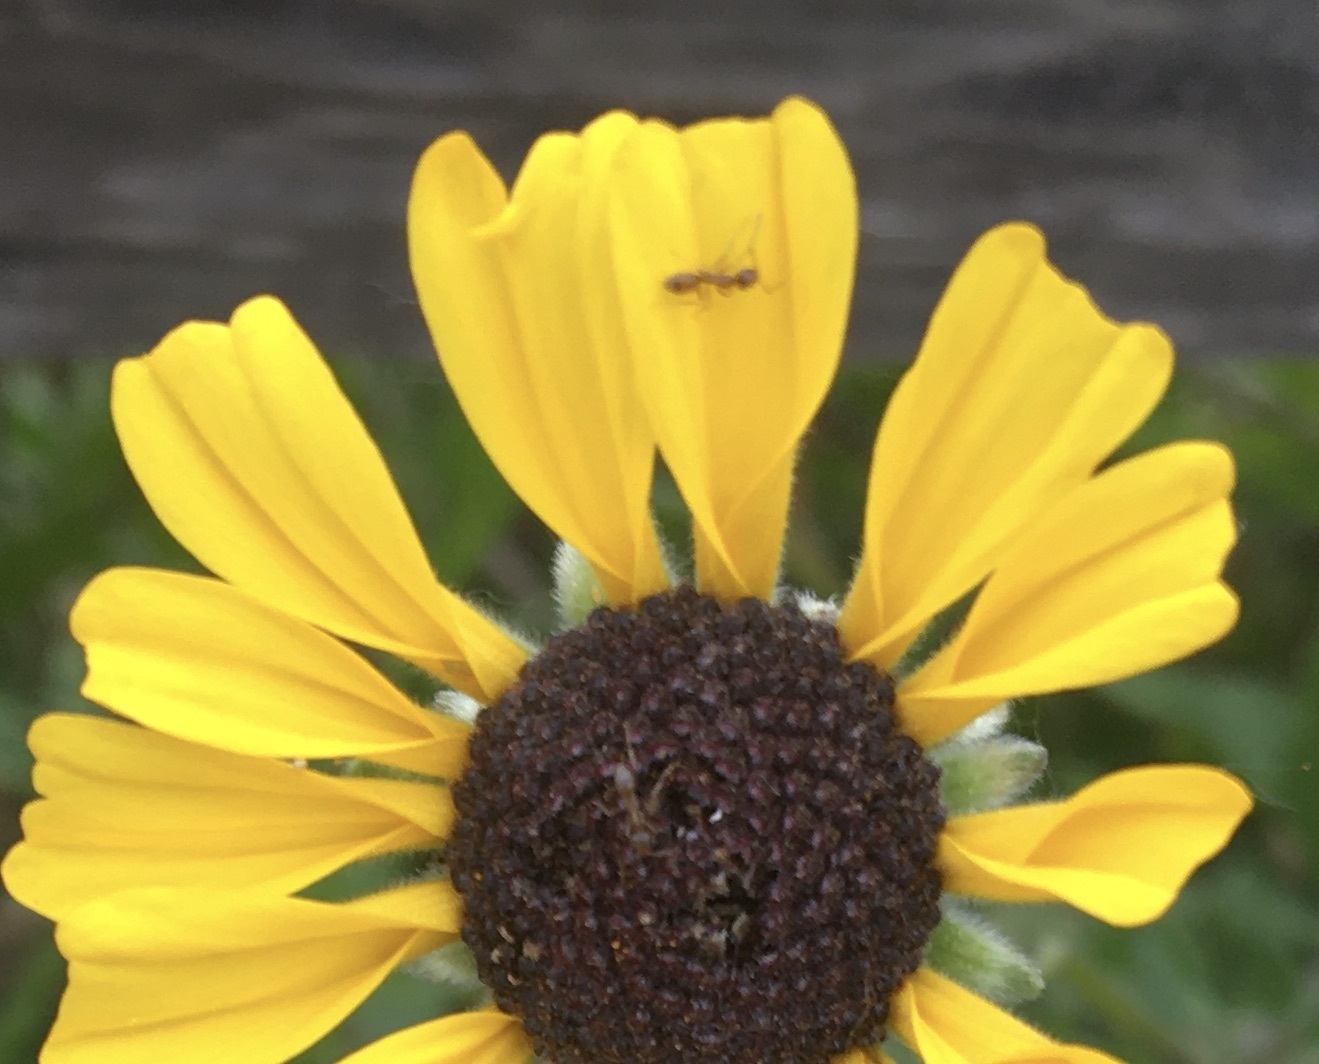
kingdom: Animalia
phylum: Arthropoda
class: Insecta
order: Hymenoptera
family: Formicidae
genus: Linepithema
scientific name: Linepithema humile
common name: Argentine ant
